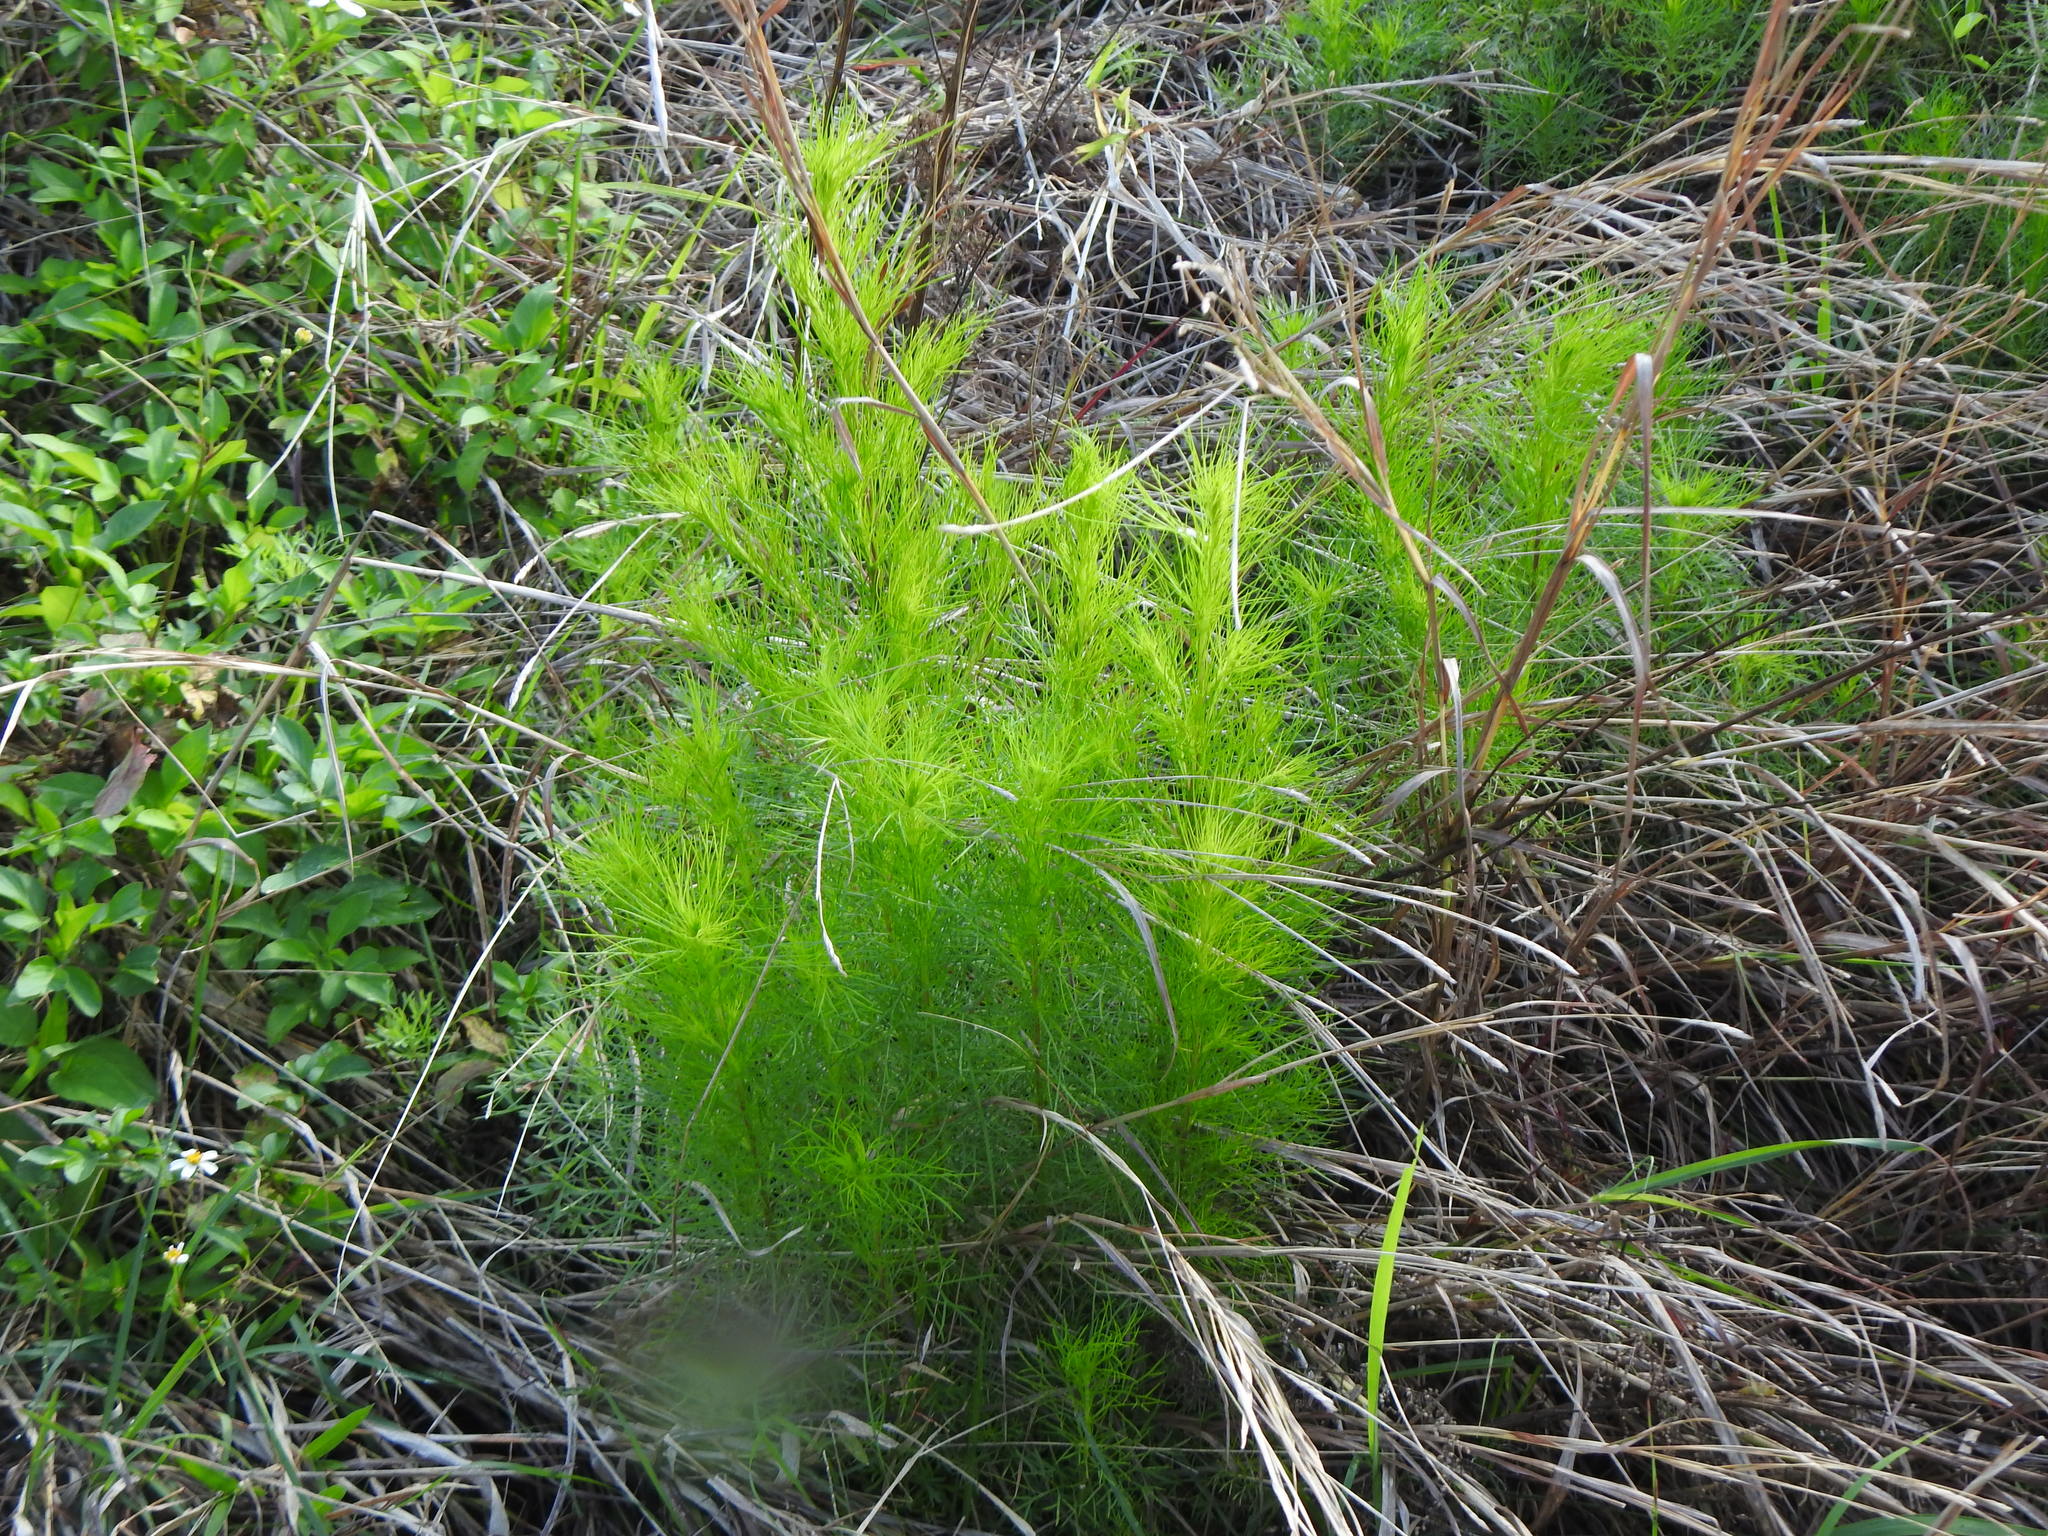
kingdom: Plantae
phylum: Tracheophyta
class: Magnoliopsida
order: Asterales
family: Asteraceae
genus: Artemisia
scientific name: Artemisia capillaris
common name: Yin-chen wormwood
